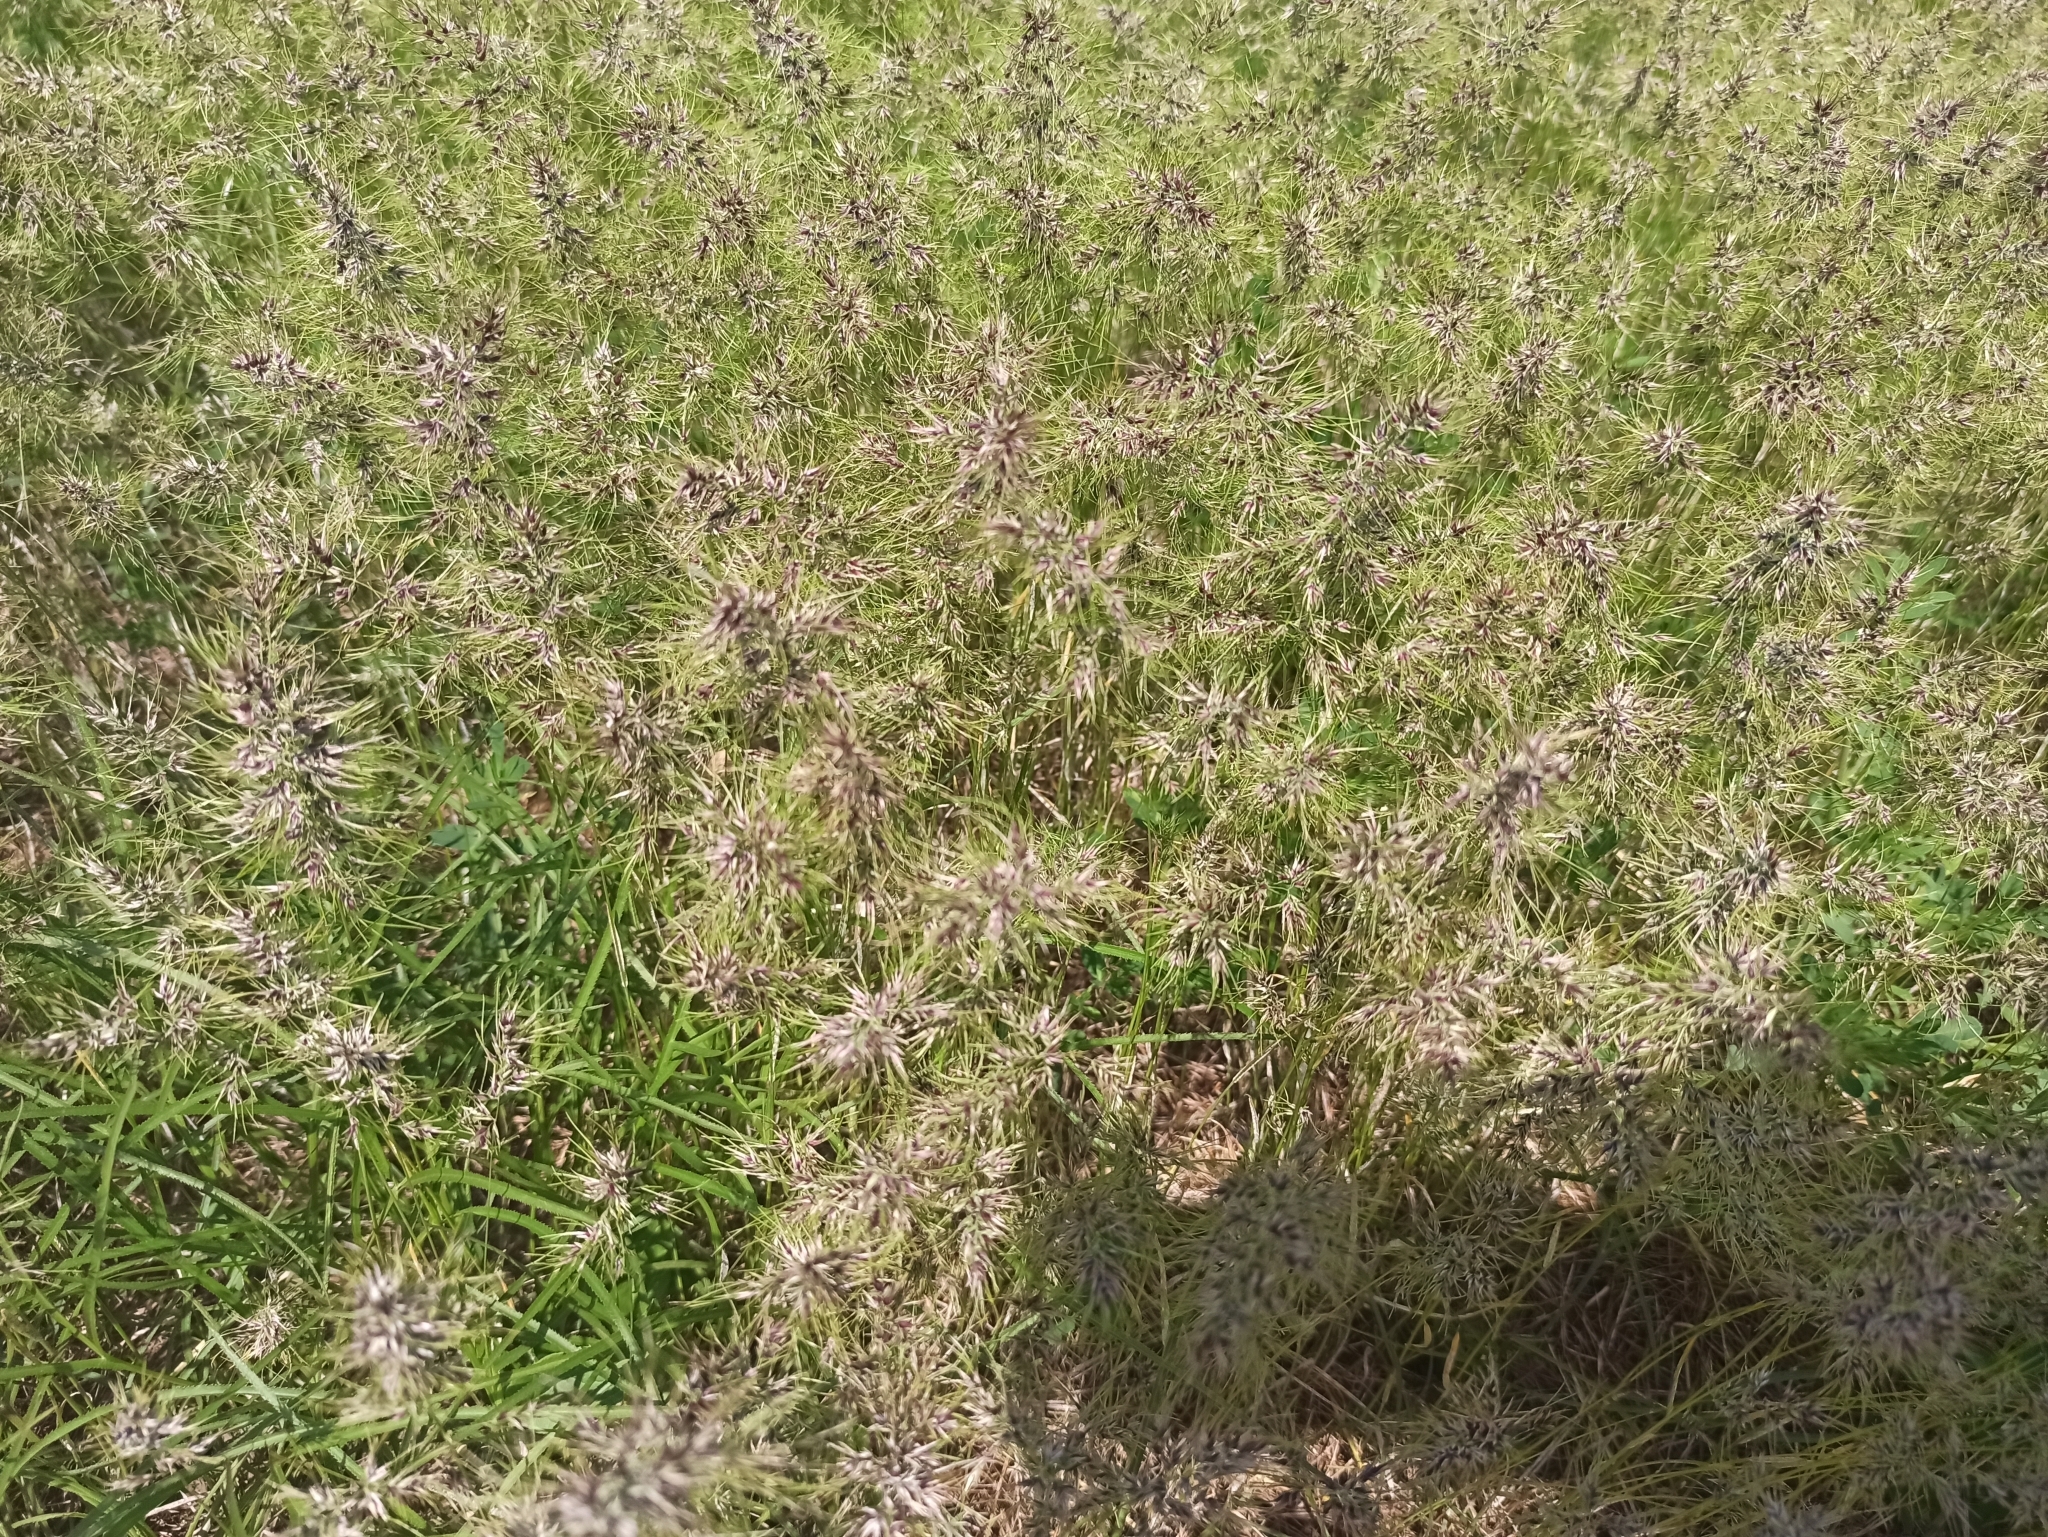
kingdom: Plantae
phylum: Tracheophyta
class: Liliopsida
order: Poales
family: Poaceae
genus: Poa
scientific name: Poa bulbosa
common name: Bulbous bluegrass
